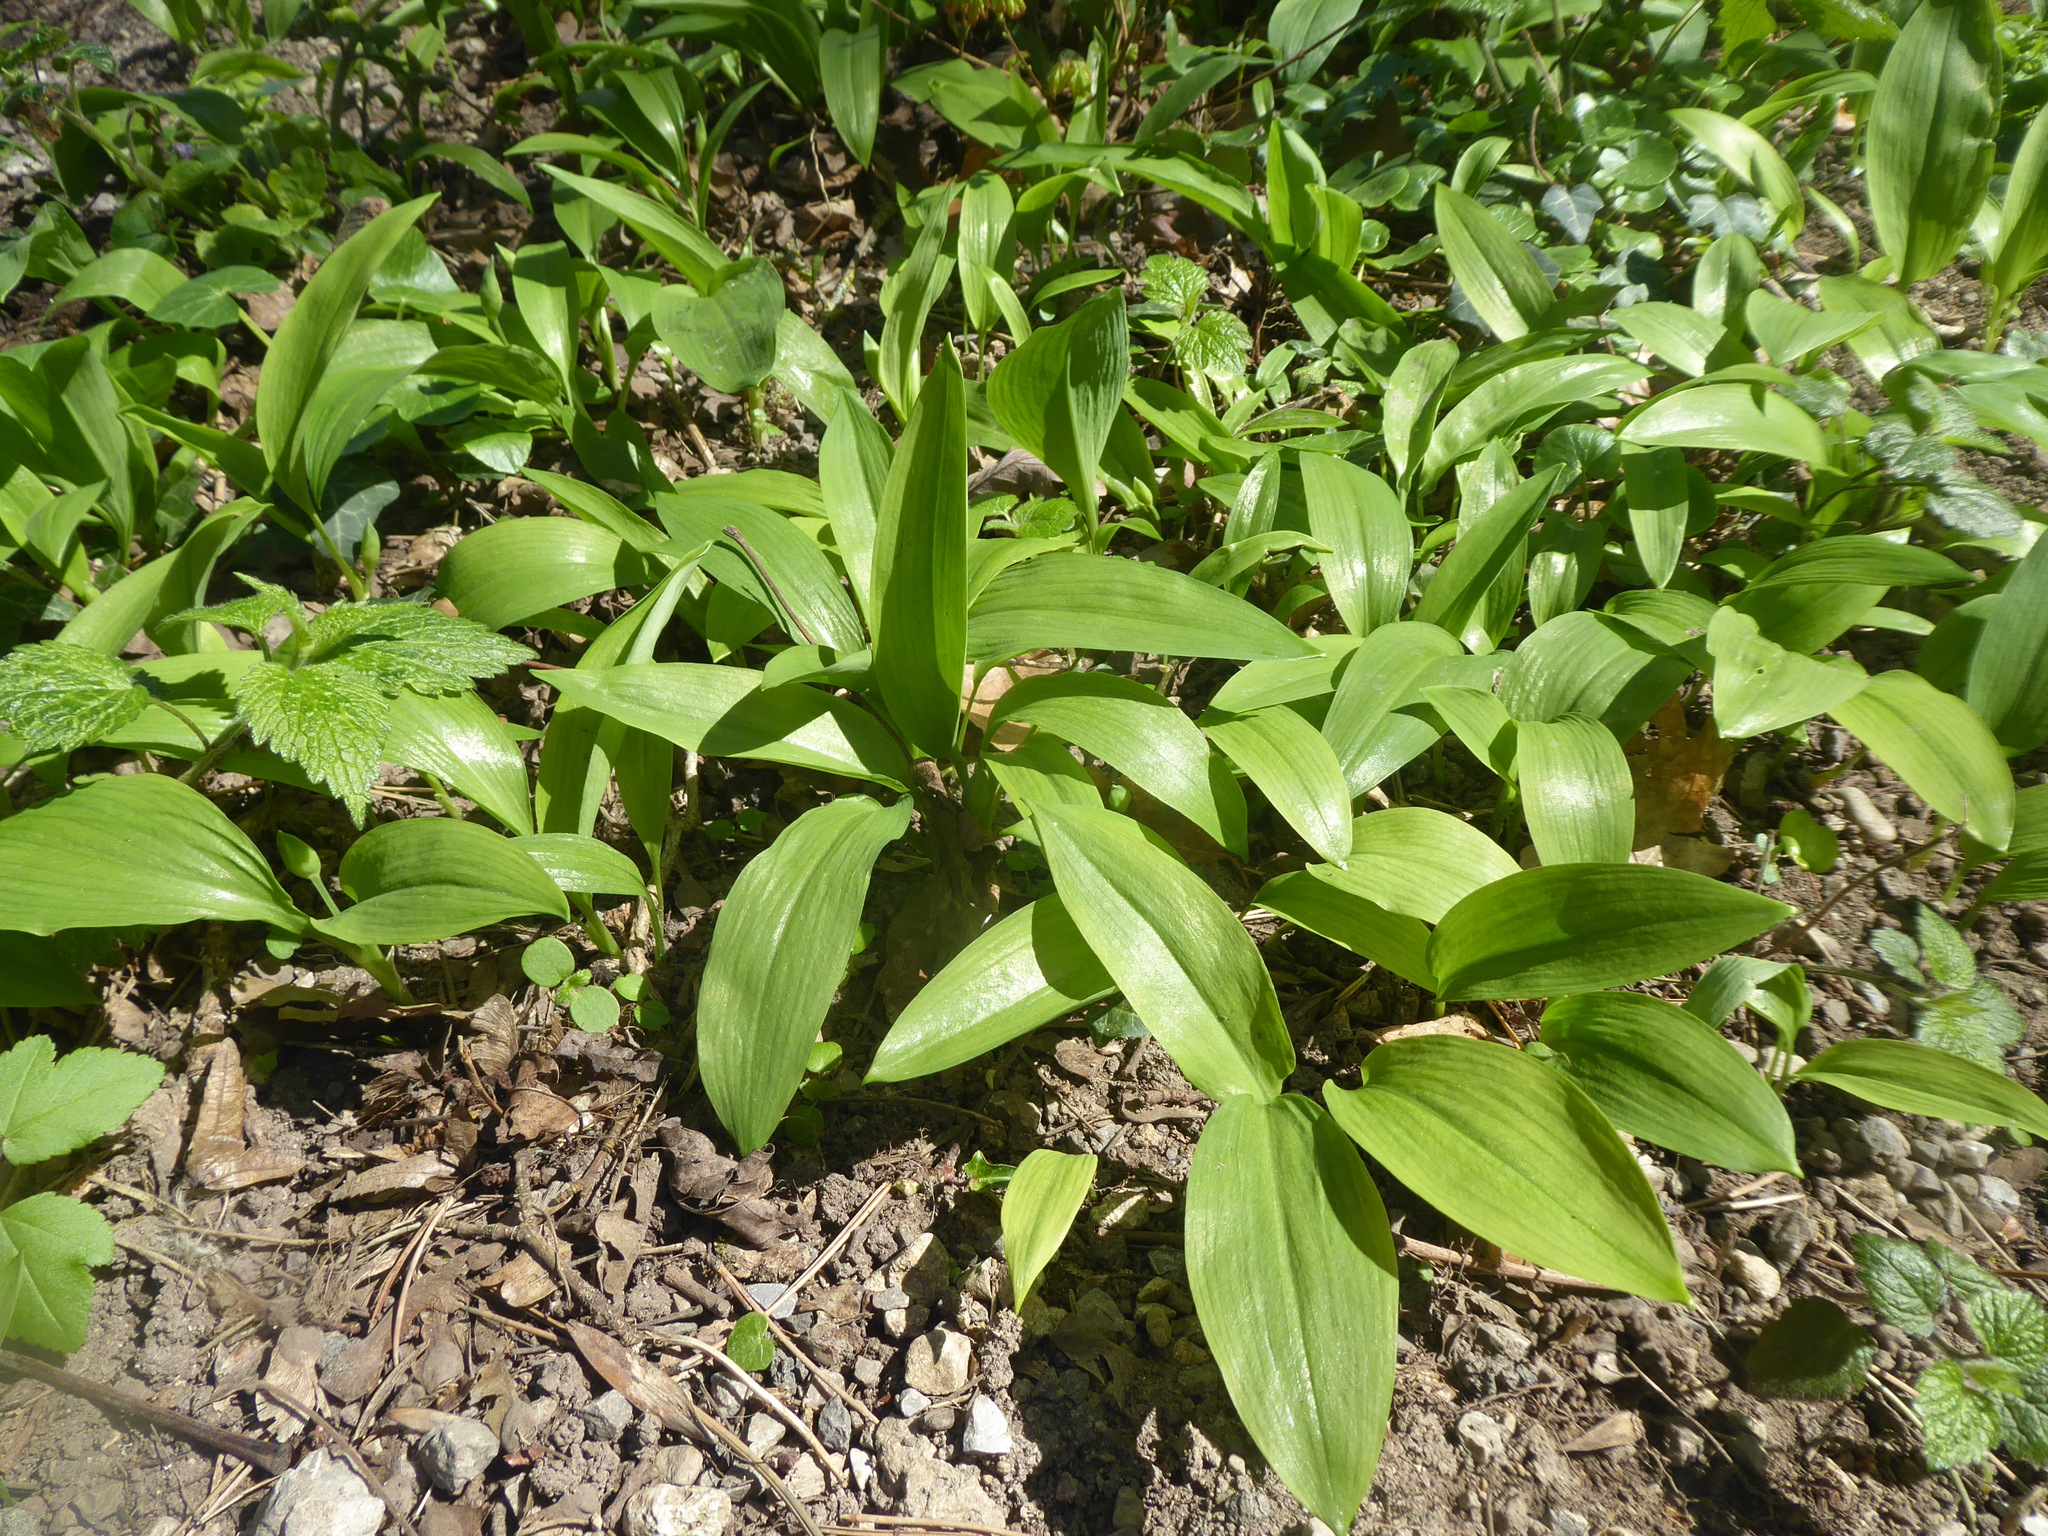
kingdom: Plantae
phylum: Tracheophyta
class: Liliopsida
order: Asparagales
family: Amaryllidaceae
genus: Allium
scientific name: Allium ursinum
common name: Ramsons
